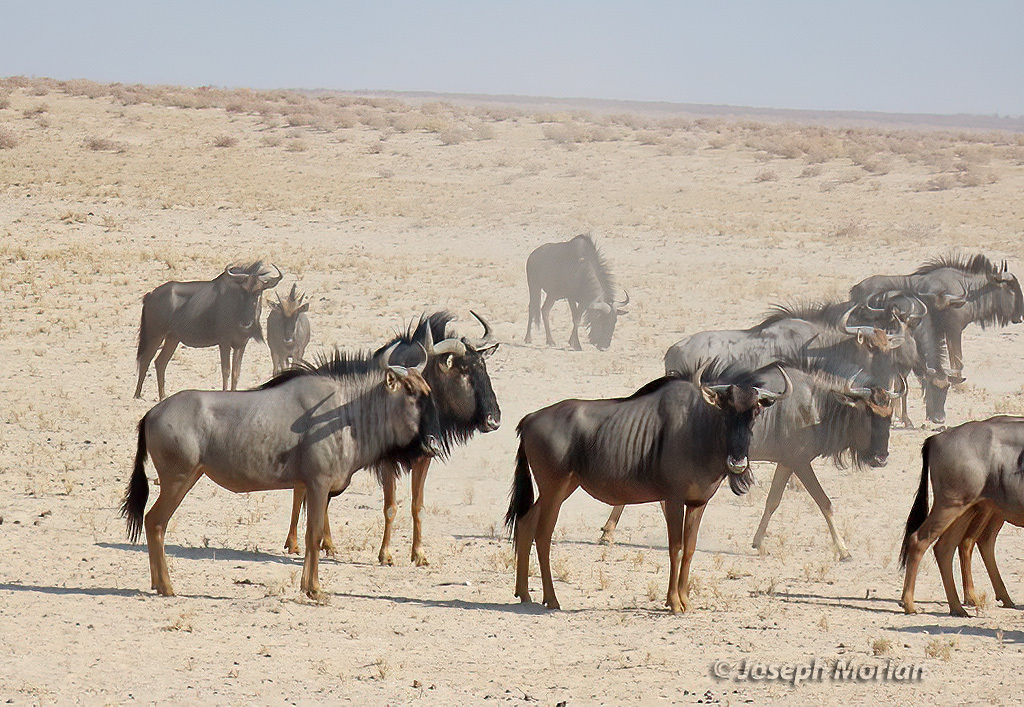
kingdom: Animalia
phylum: Chordata
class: Mammalia
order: Artiodactyla
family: Bovidae
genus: Connochaetes
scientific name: Connochaetes taurinus
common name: Blue wildebeest
